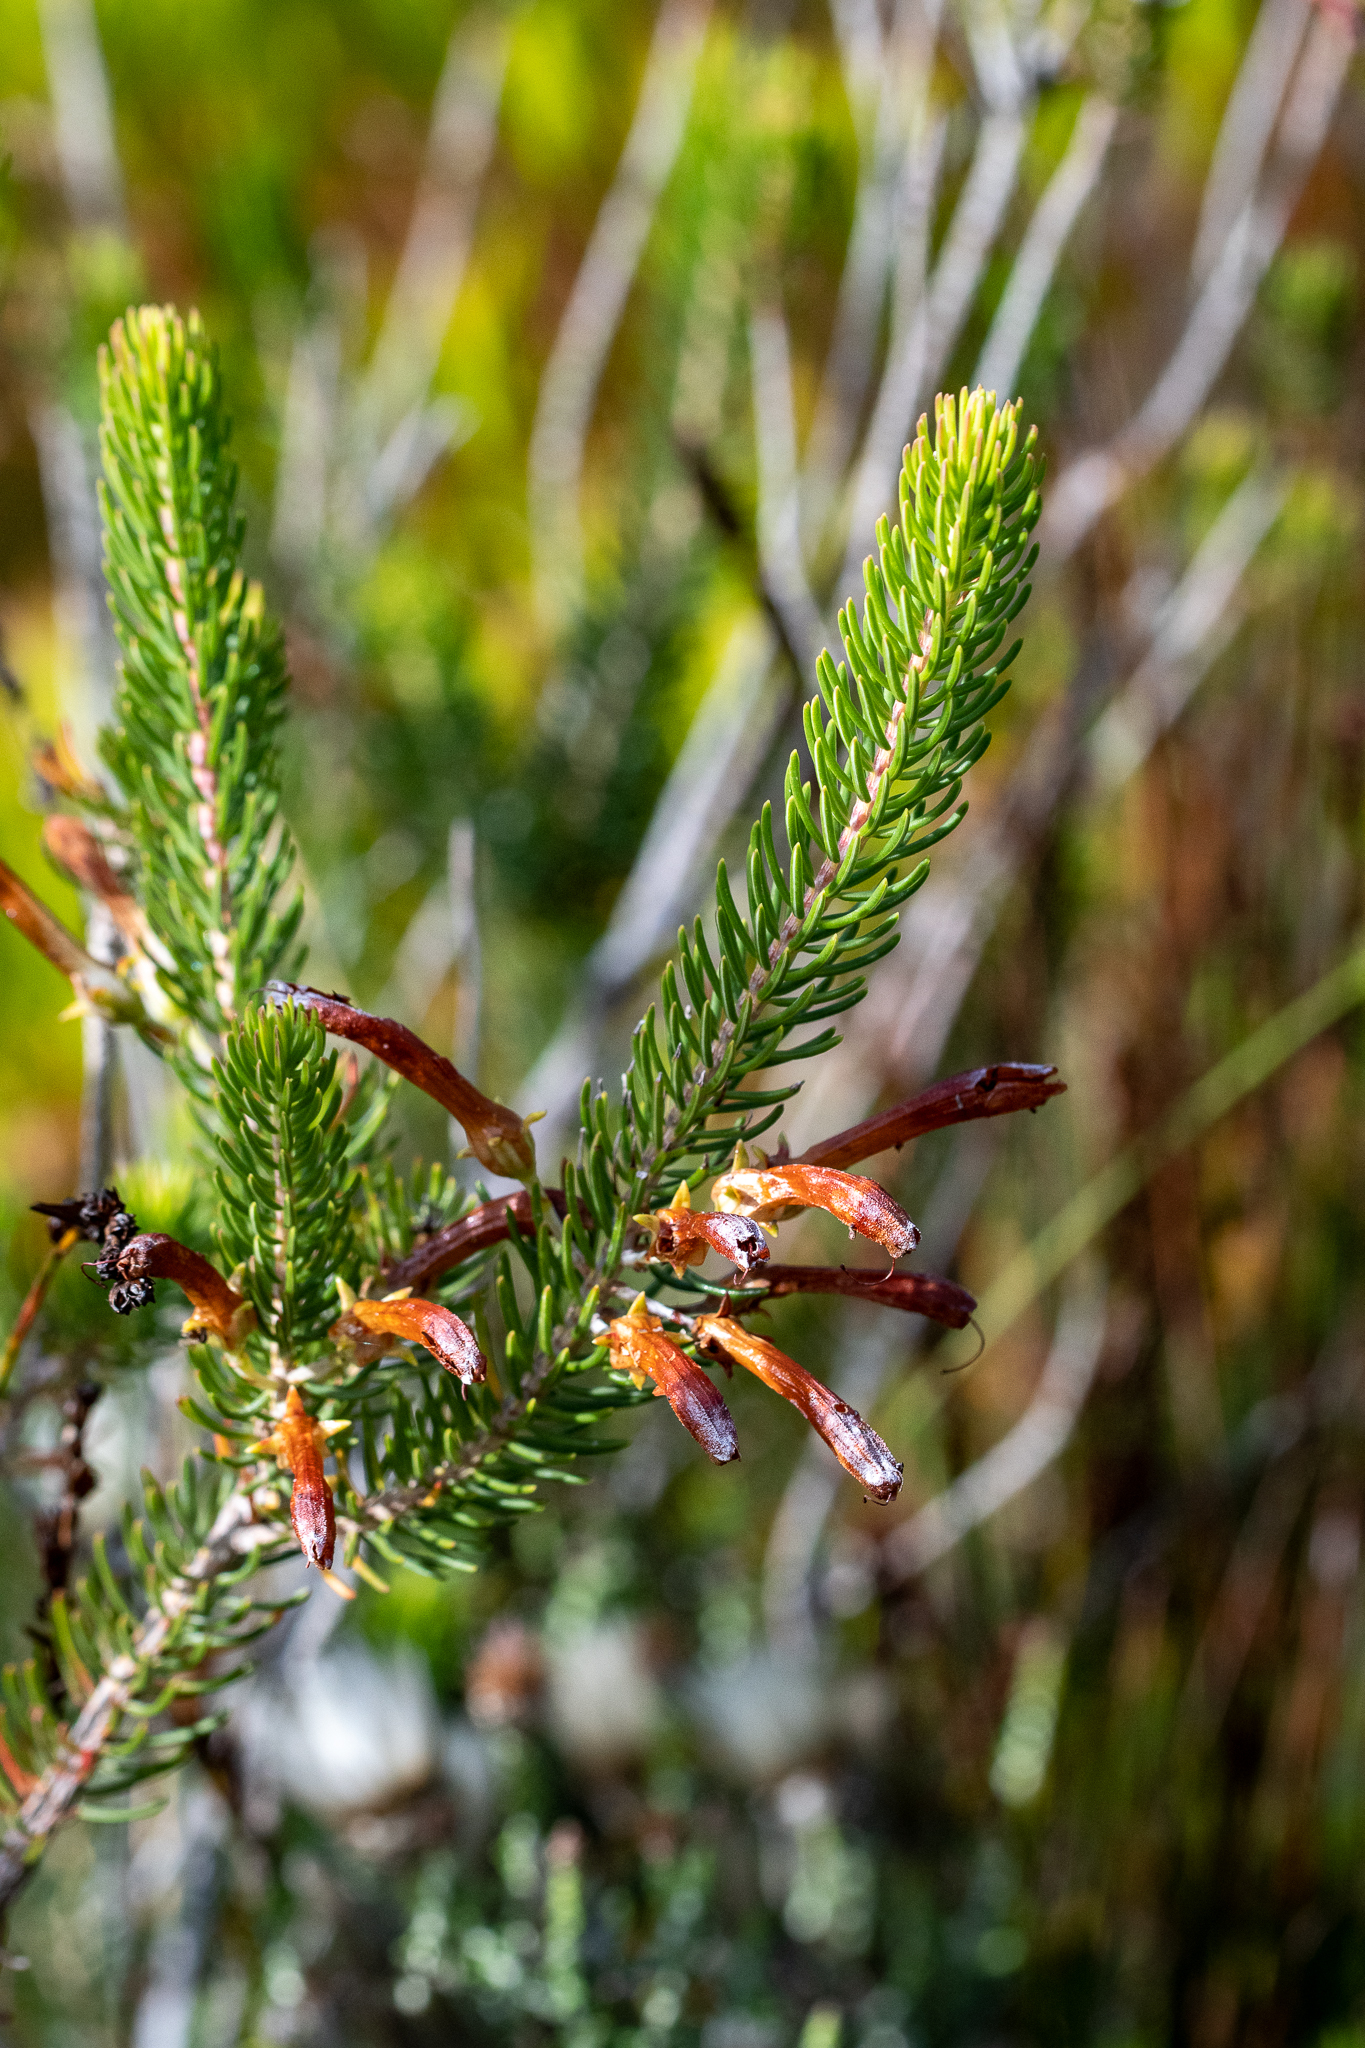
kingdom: Plantae
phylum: Tracheophyta
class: Magnoliopsida
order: Ericales
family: Ericaceae
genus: Erica
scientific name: Erica thomae
